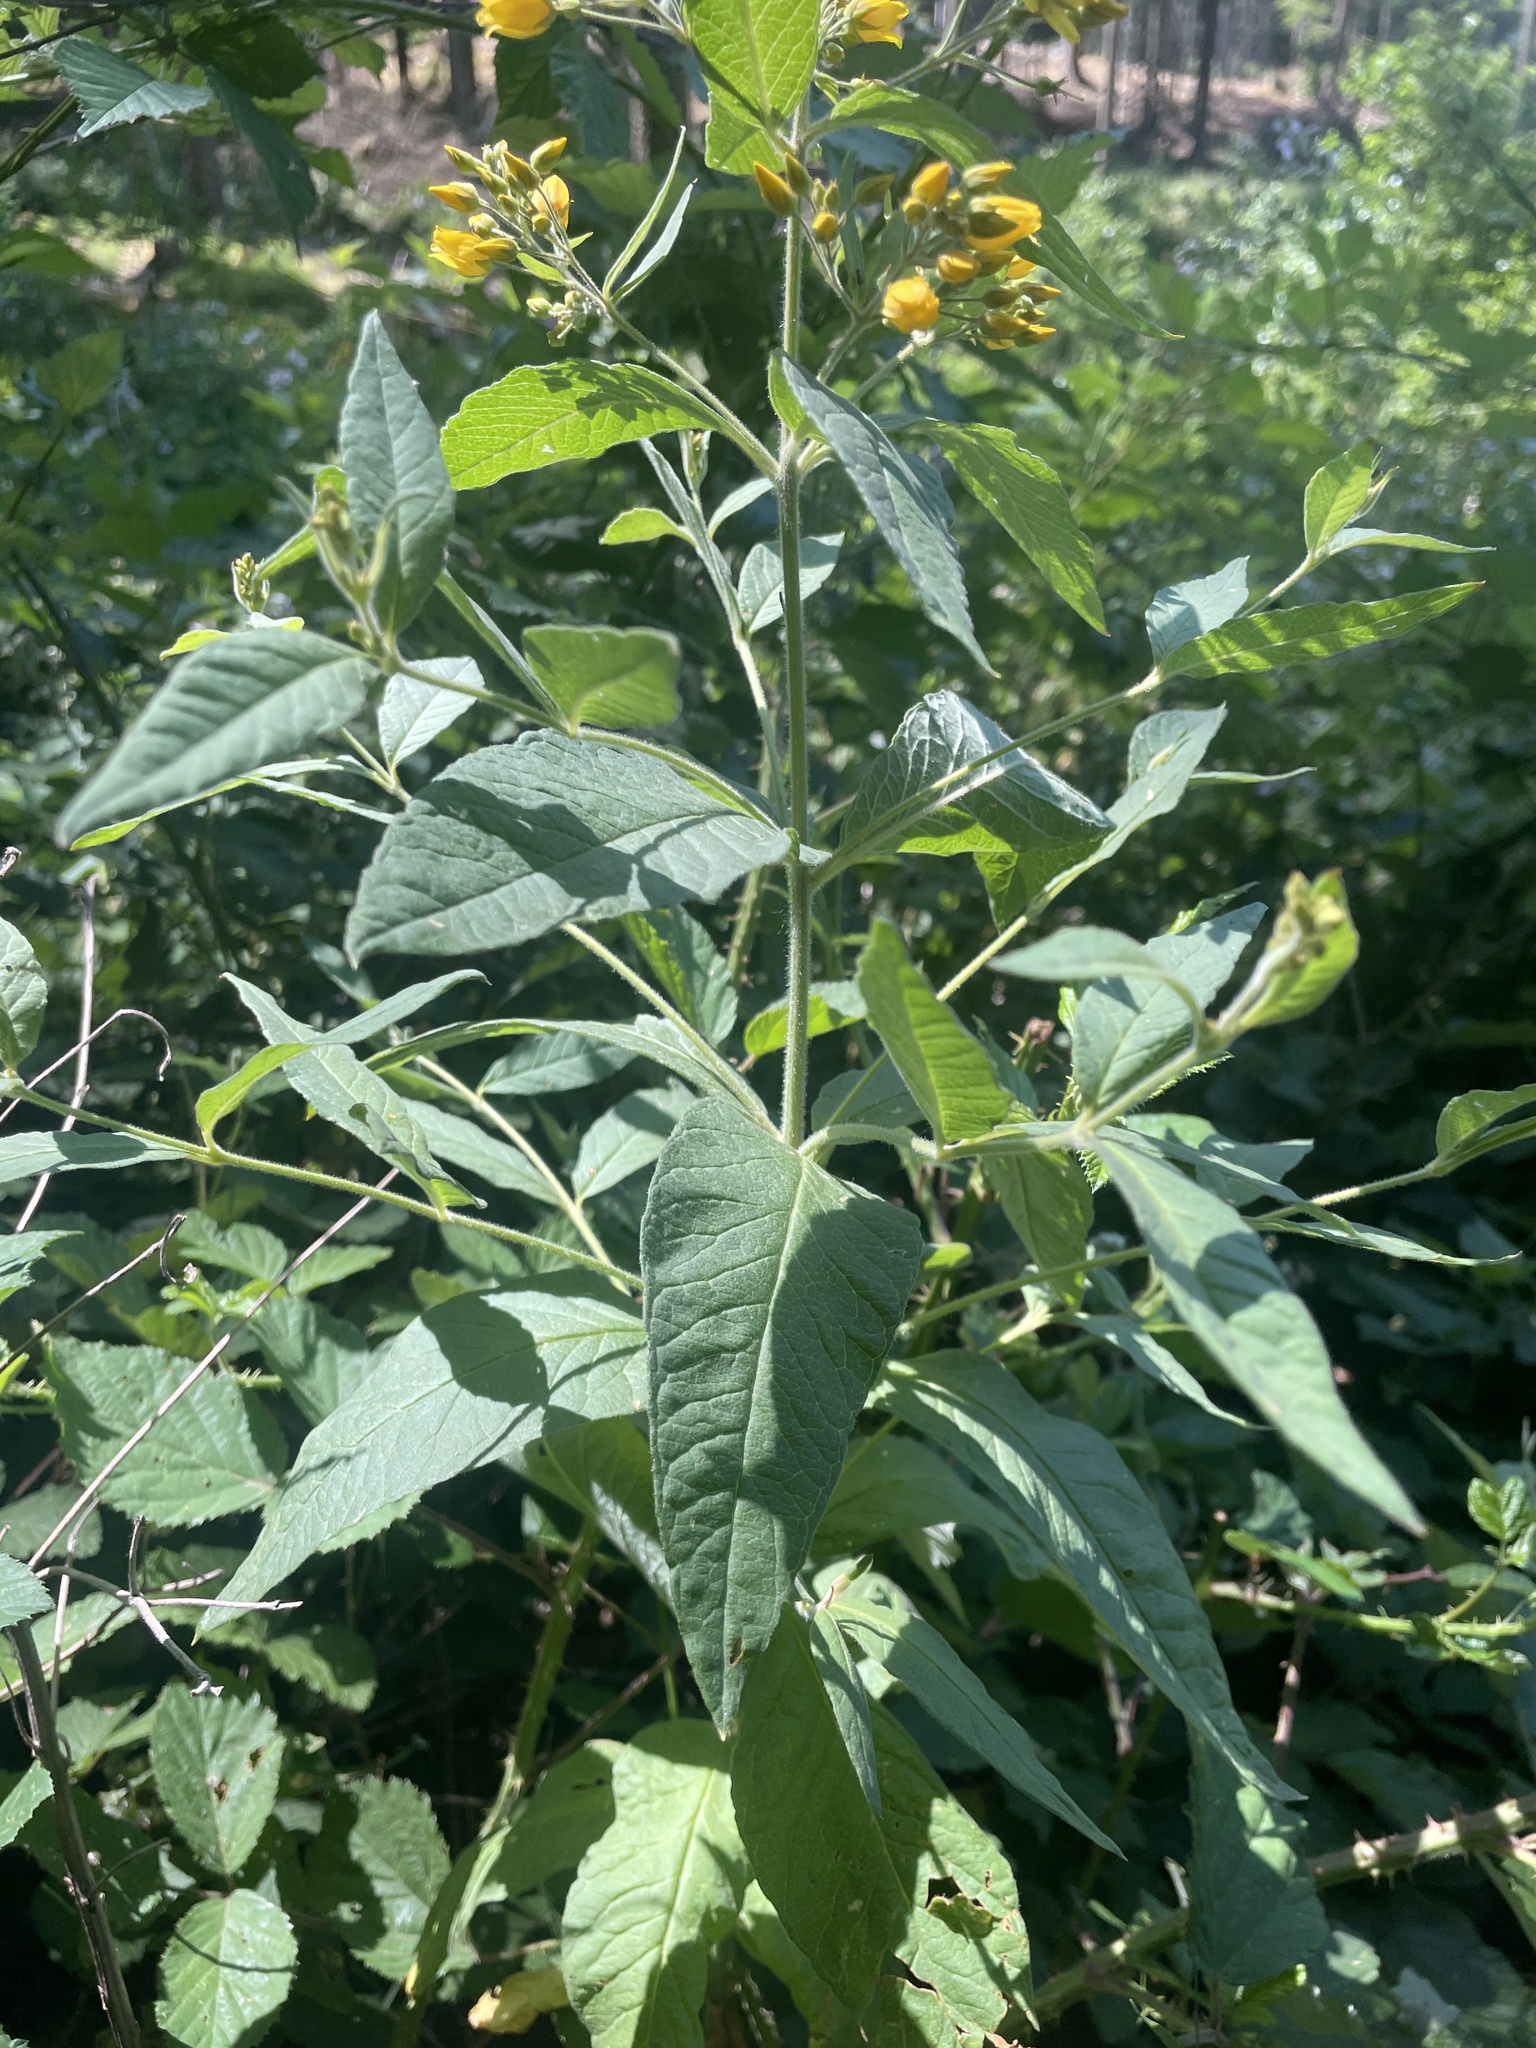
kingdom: Plantae
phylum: Tracheophyta
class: Magnoliopsida
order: Ericales
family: Primulaceae
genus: Lysimachia
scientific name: Lysimachia vulgaris
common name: Yellow loosestrife
